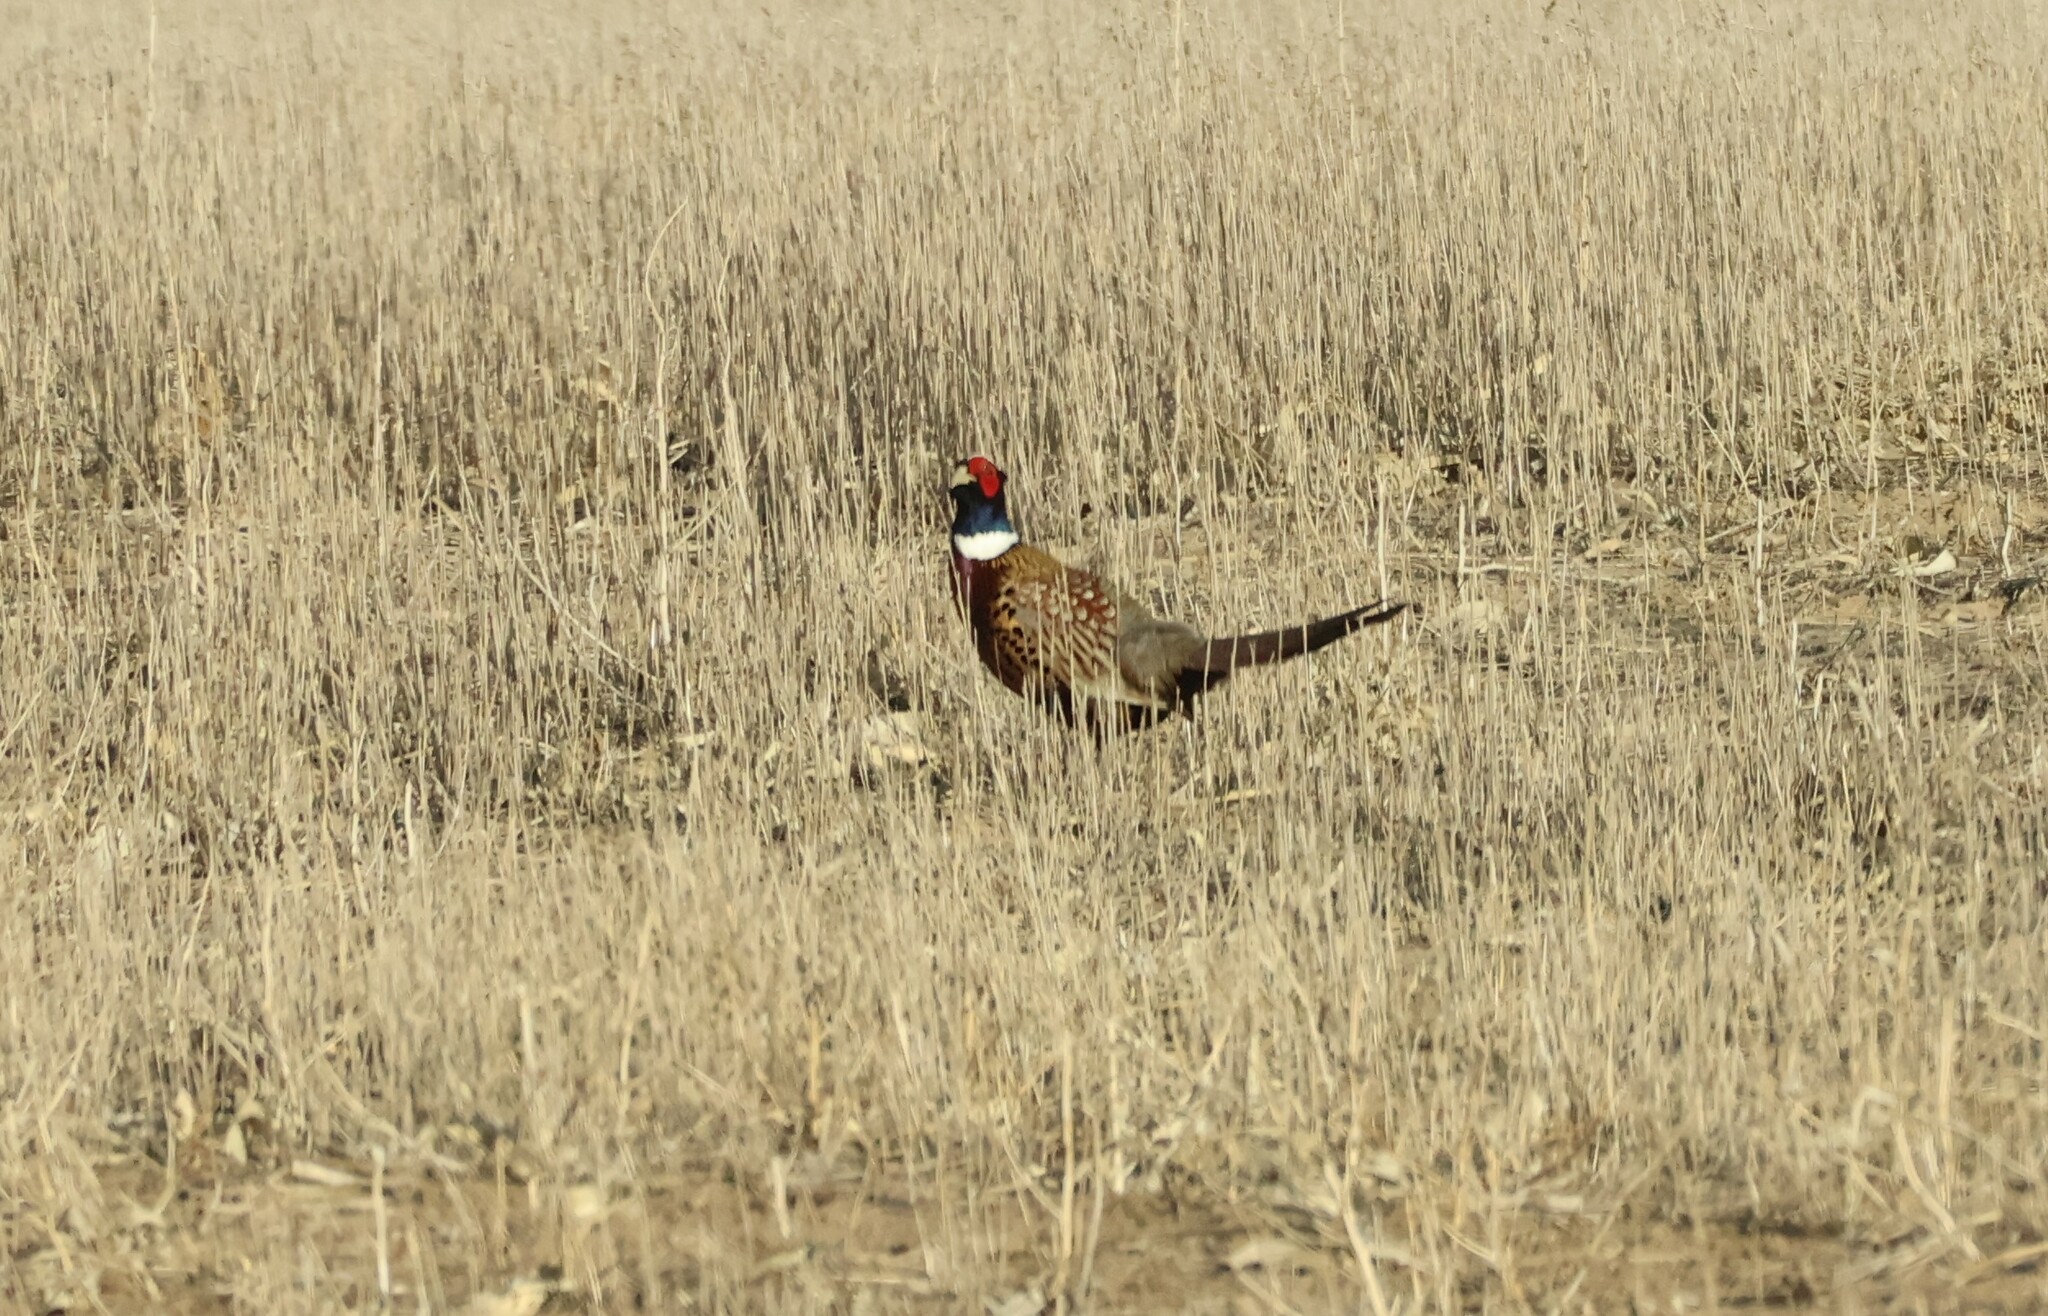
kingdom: Animalia
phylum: Chordata
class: Aves
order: Galliformes
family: Phasianidae
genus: Phasianus
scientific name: Phasianus colchicus
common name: Common pheasant
